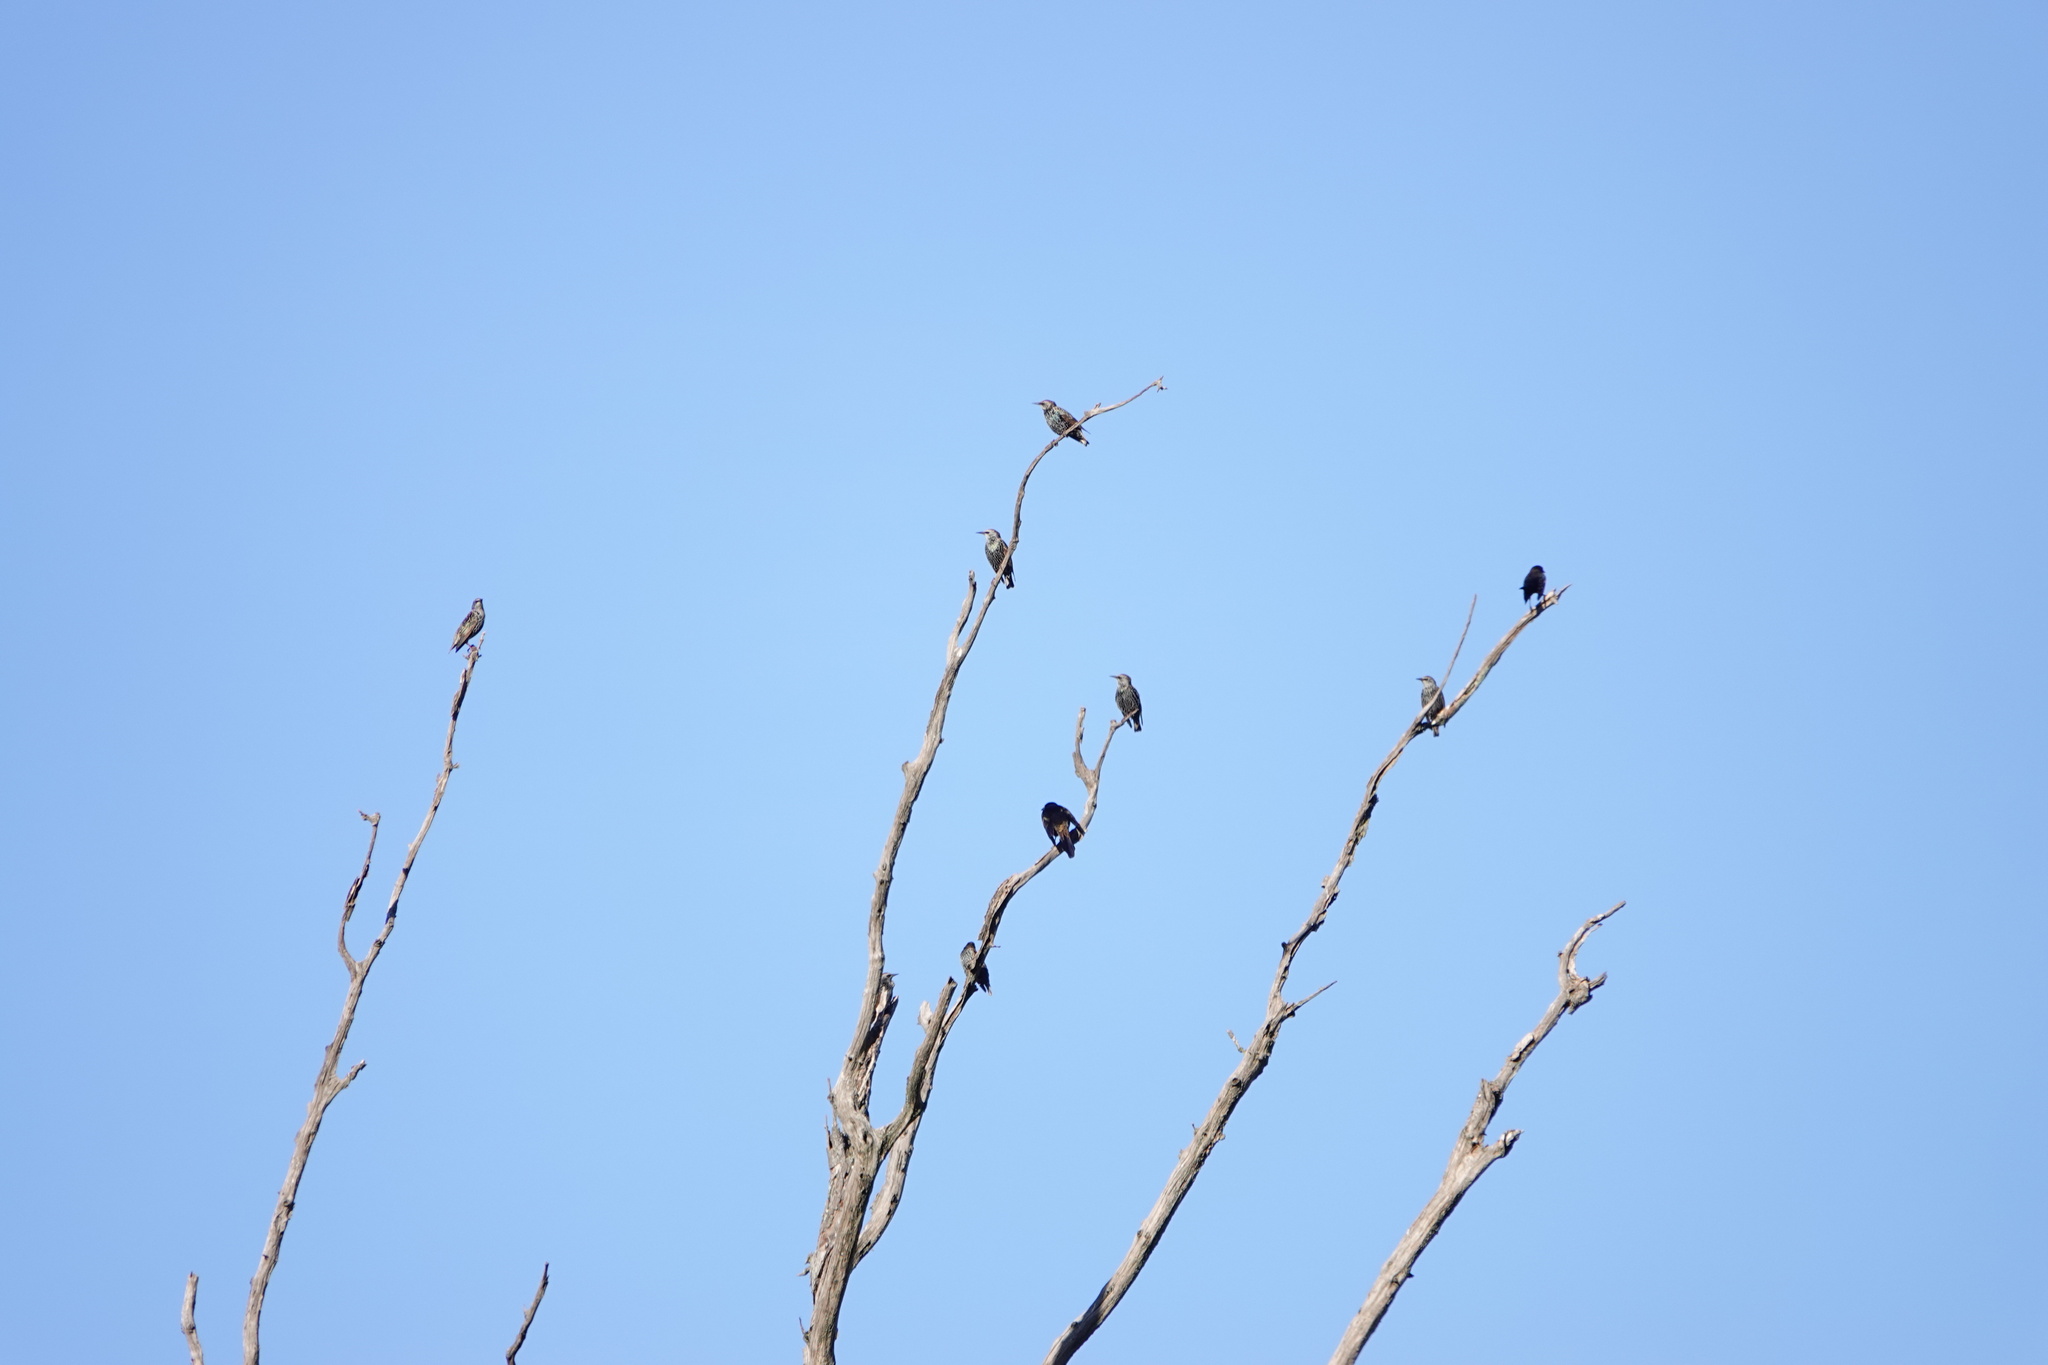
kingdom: Animalia
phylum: Chordata
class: Aves
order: Passeriformes
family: Sturnidae
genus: Sturnus
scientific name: Sturnus vulgaris
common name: Common starling
